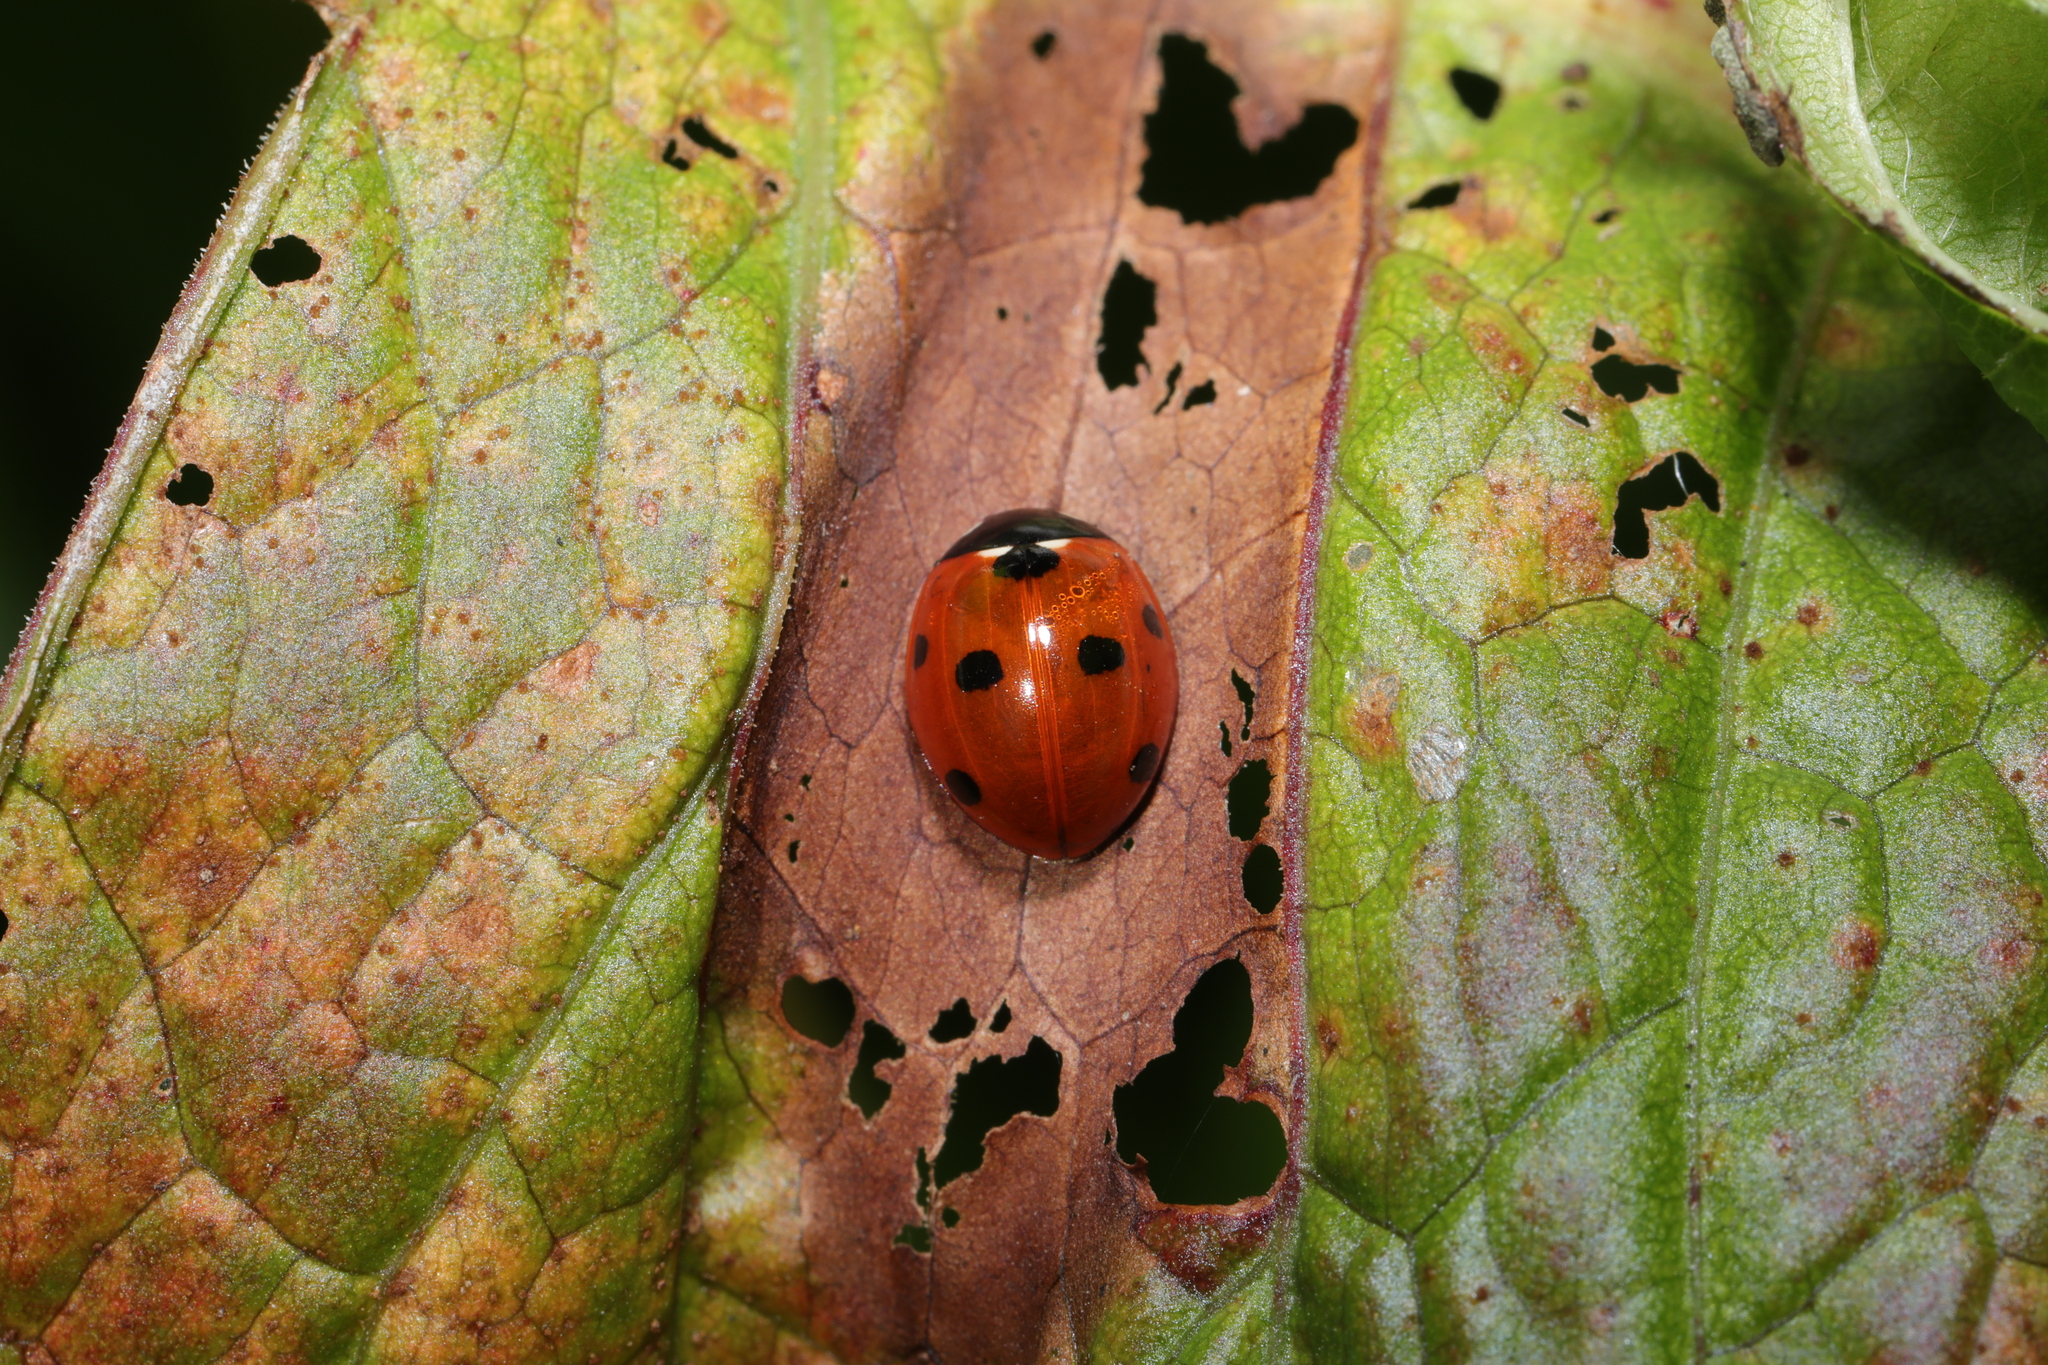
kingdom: Animalia
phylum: Arthropoda
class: Insecta
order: Coleoptera
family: Coccinellidae
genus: Coccinella
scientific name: Coccinella septempunctata
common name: Sevenspotted lady beetle
